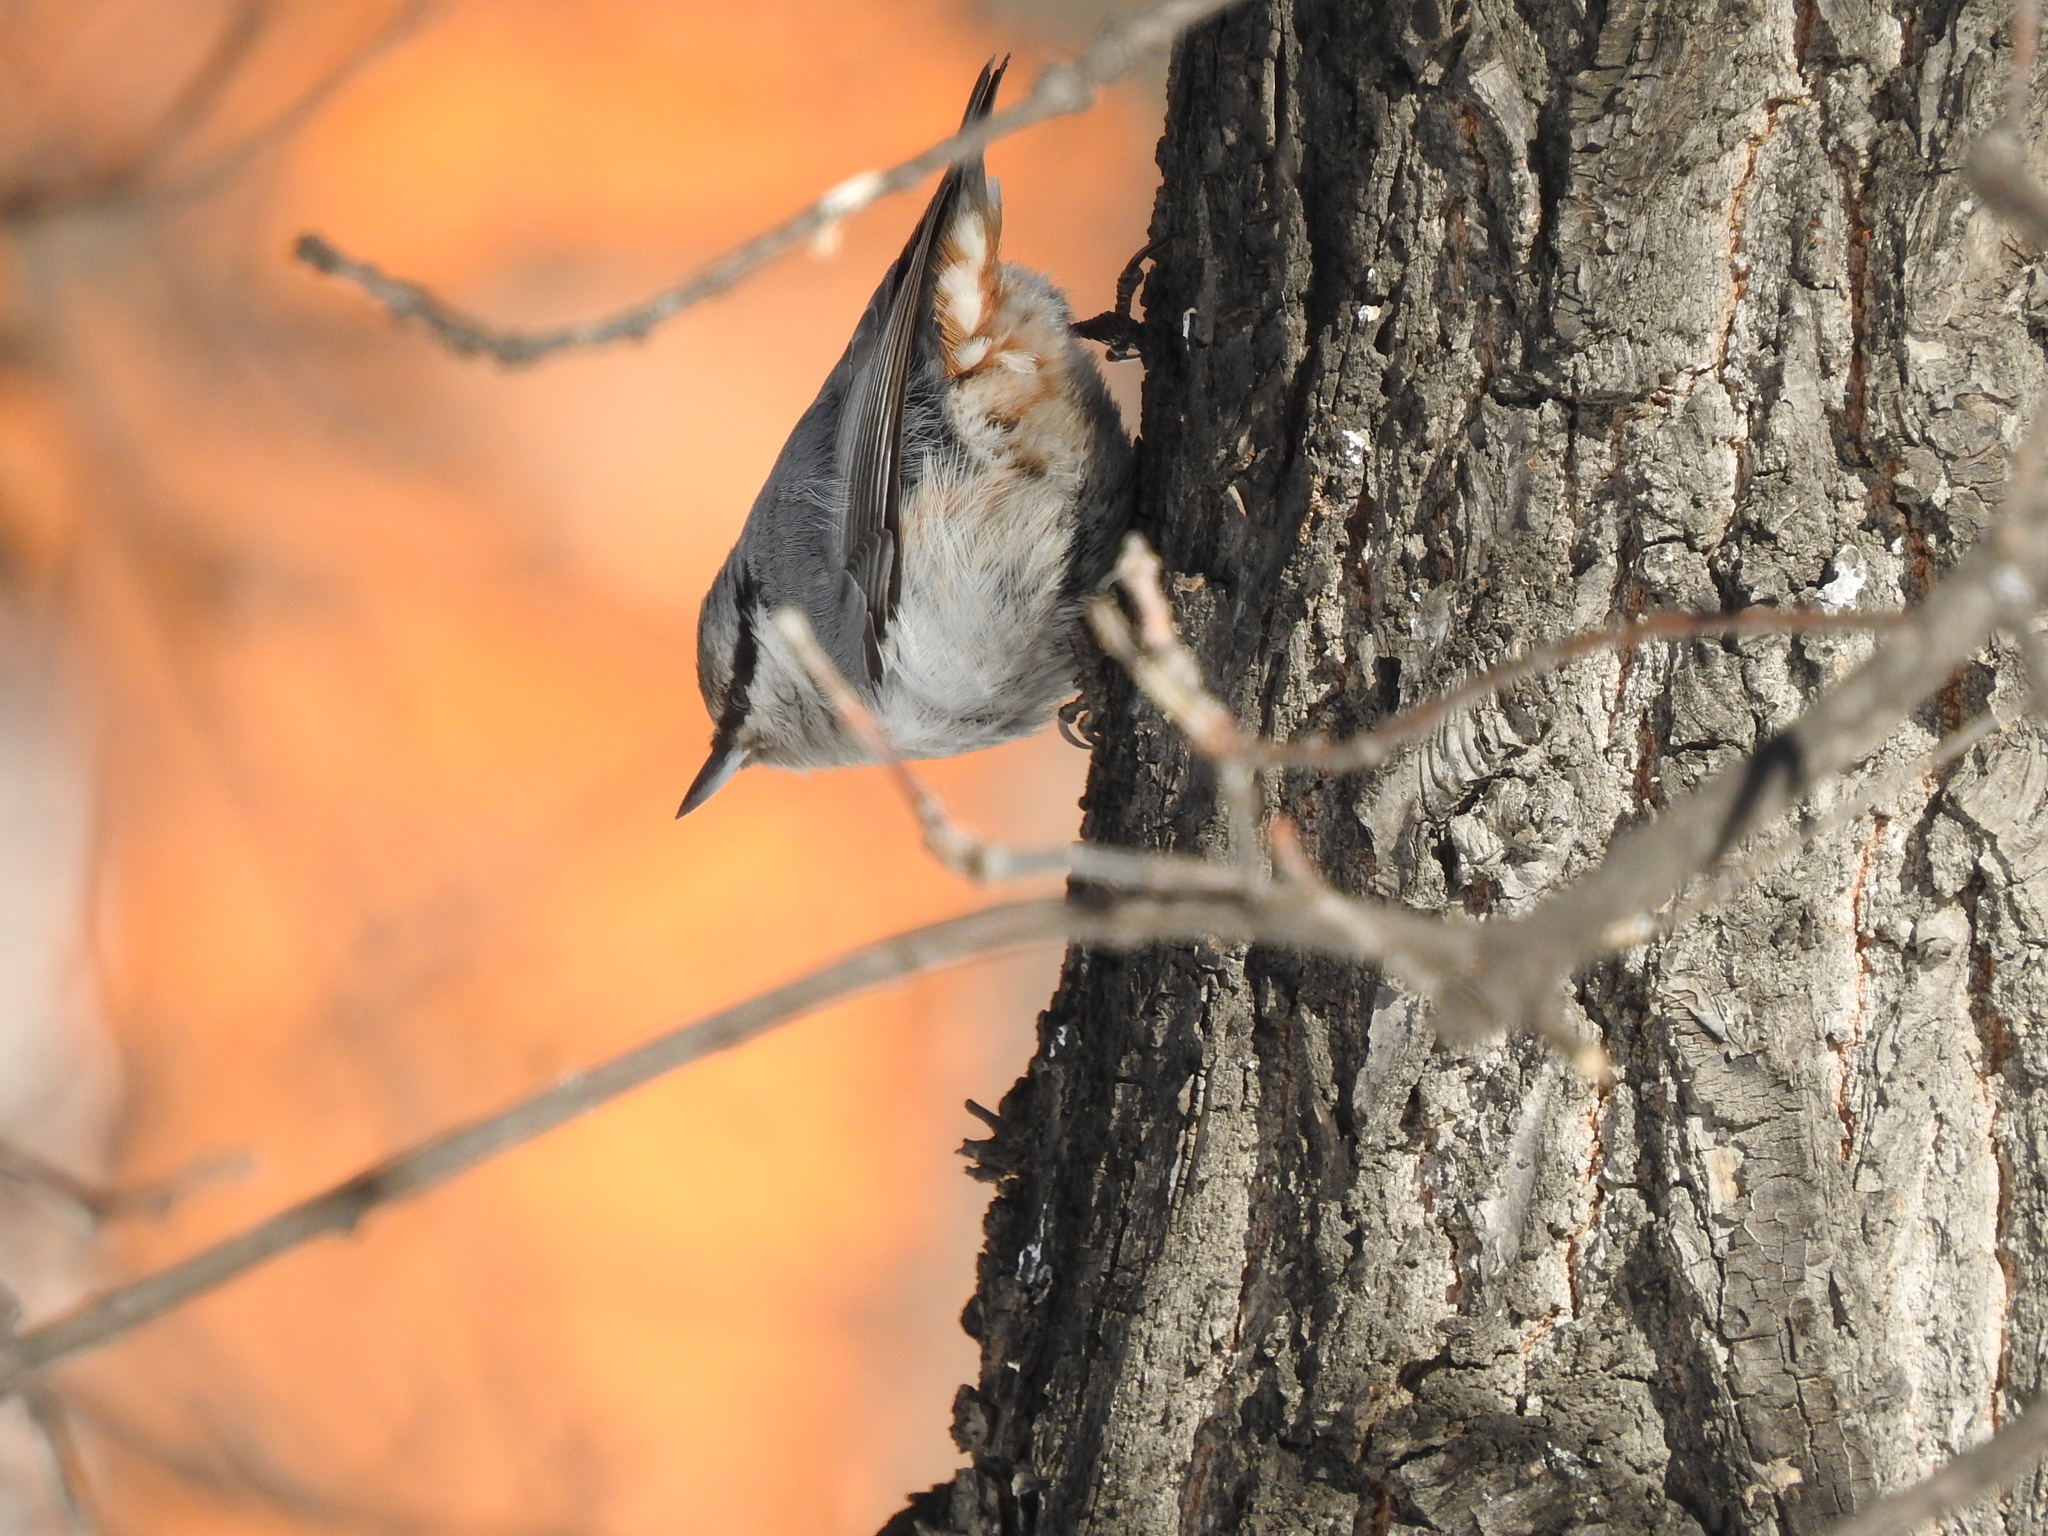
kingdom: Animalia
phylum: Chordata
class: Aves
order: Passeriformes
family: Sittidae
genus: Sitta
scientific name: Sitta europaea
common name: Eurasian nuthatch
